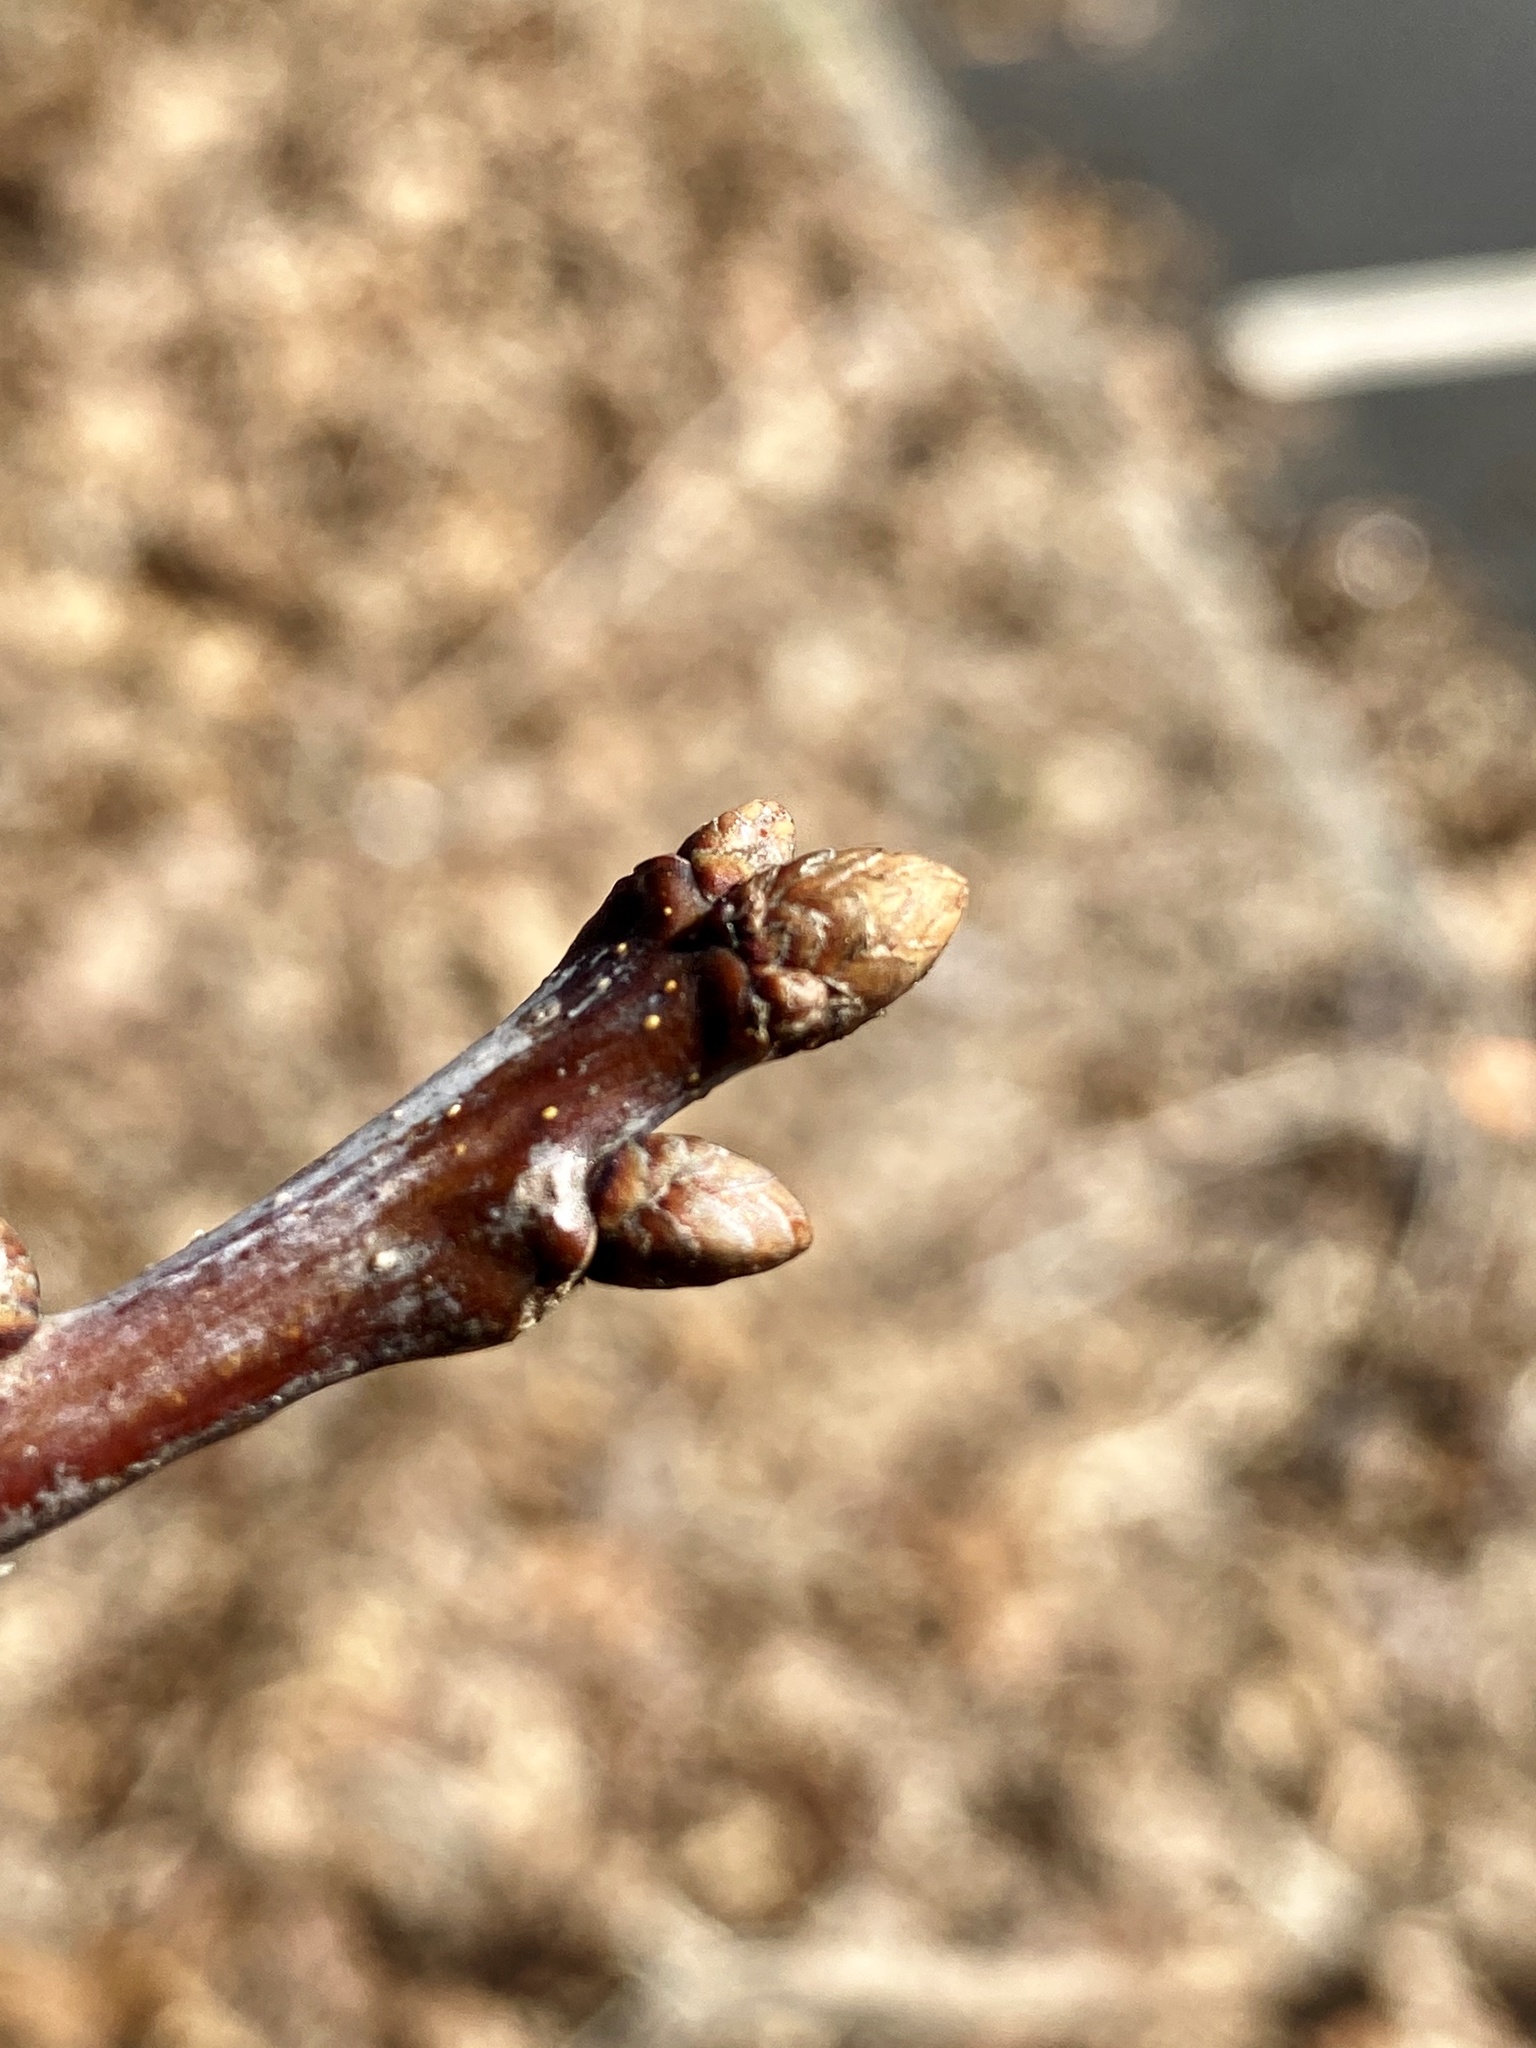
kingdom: Plantae
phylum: Tracheophyta
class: Magnoliopsida
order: Fagales
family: Fagaceae
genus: Quercus
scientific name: Quercus alba
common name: White oak
